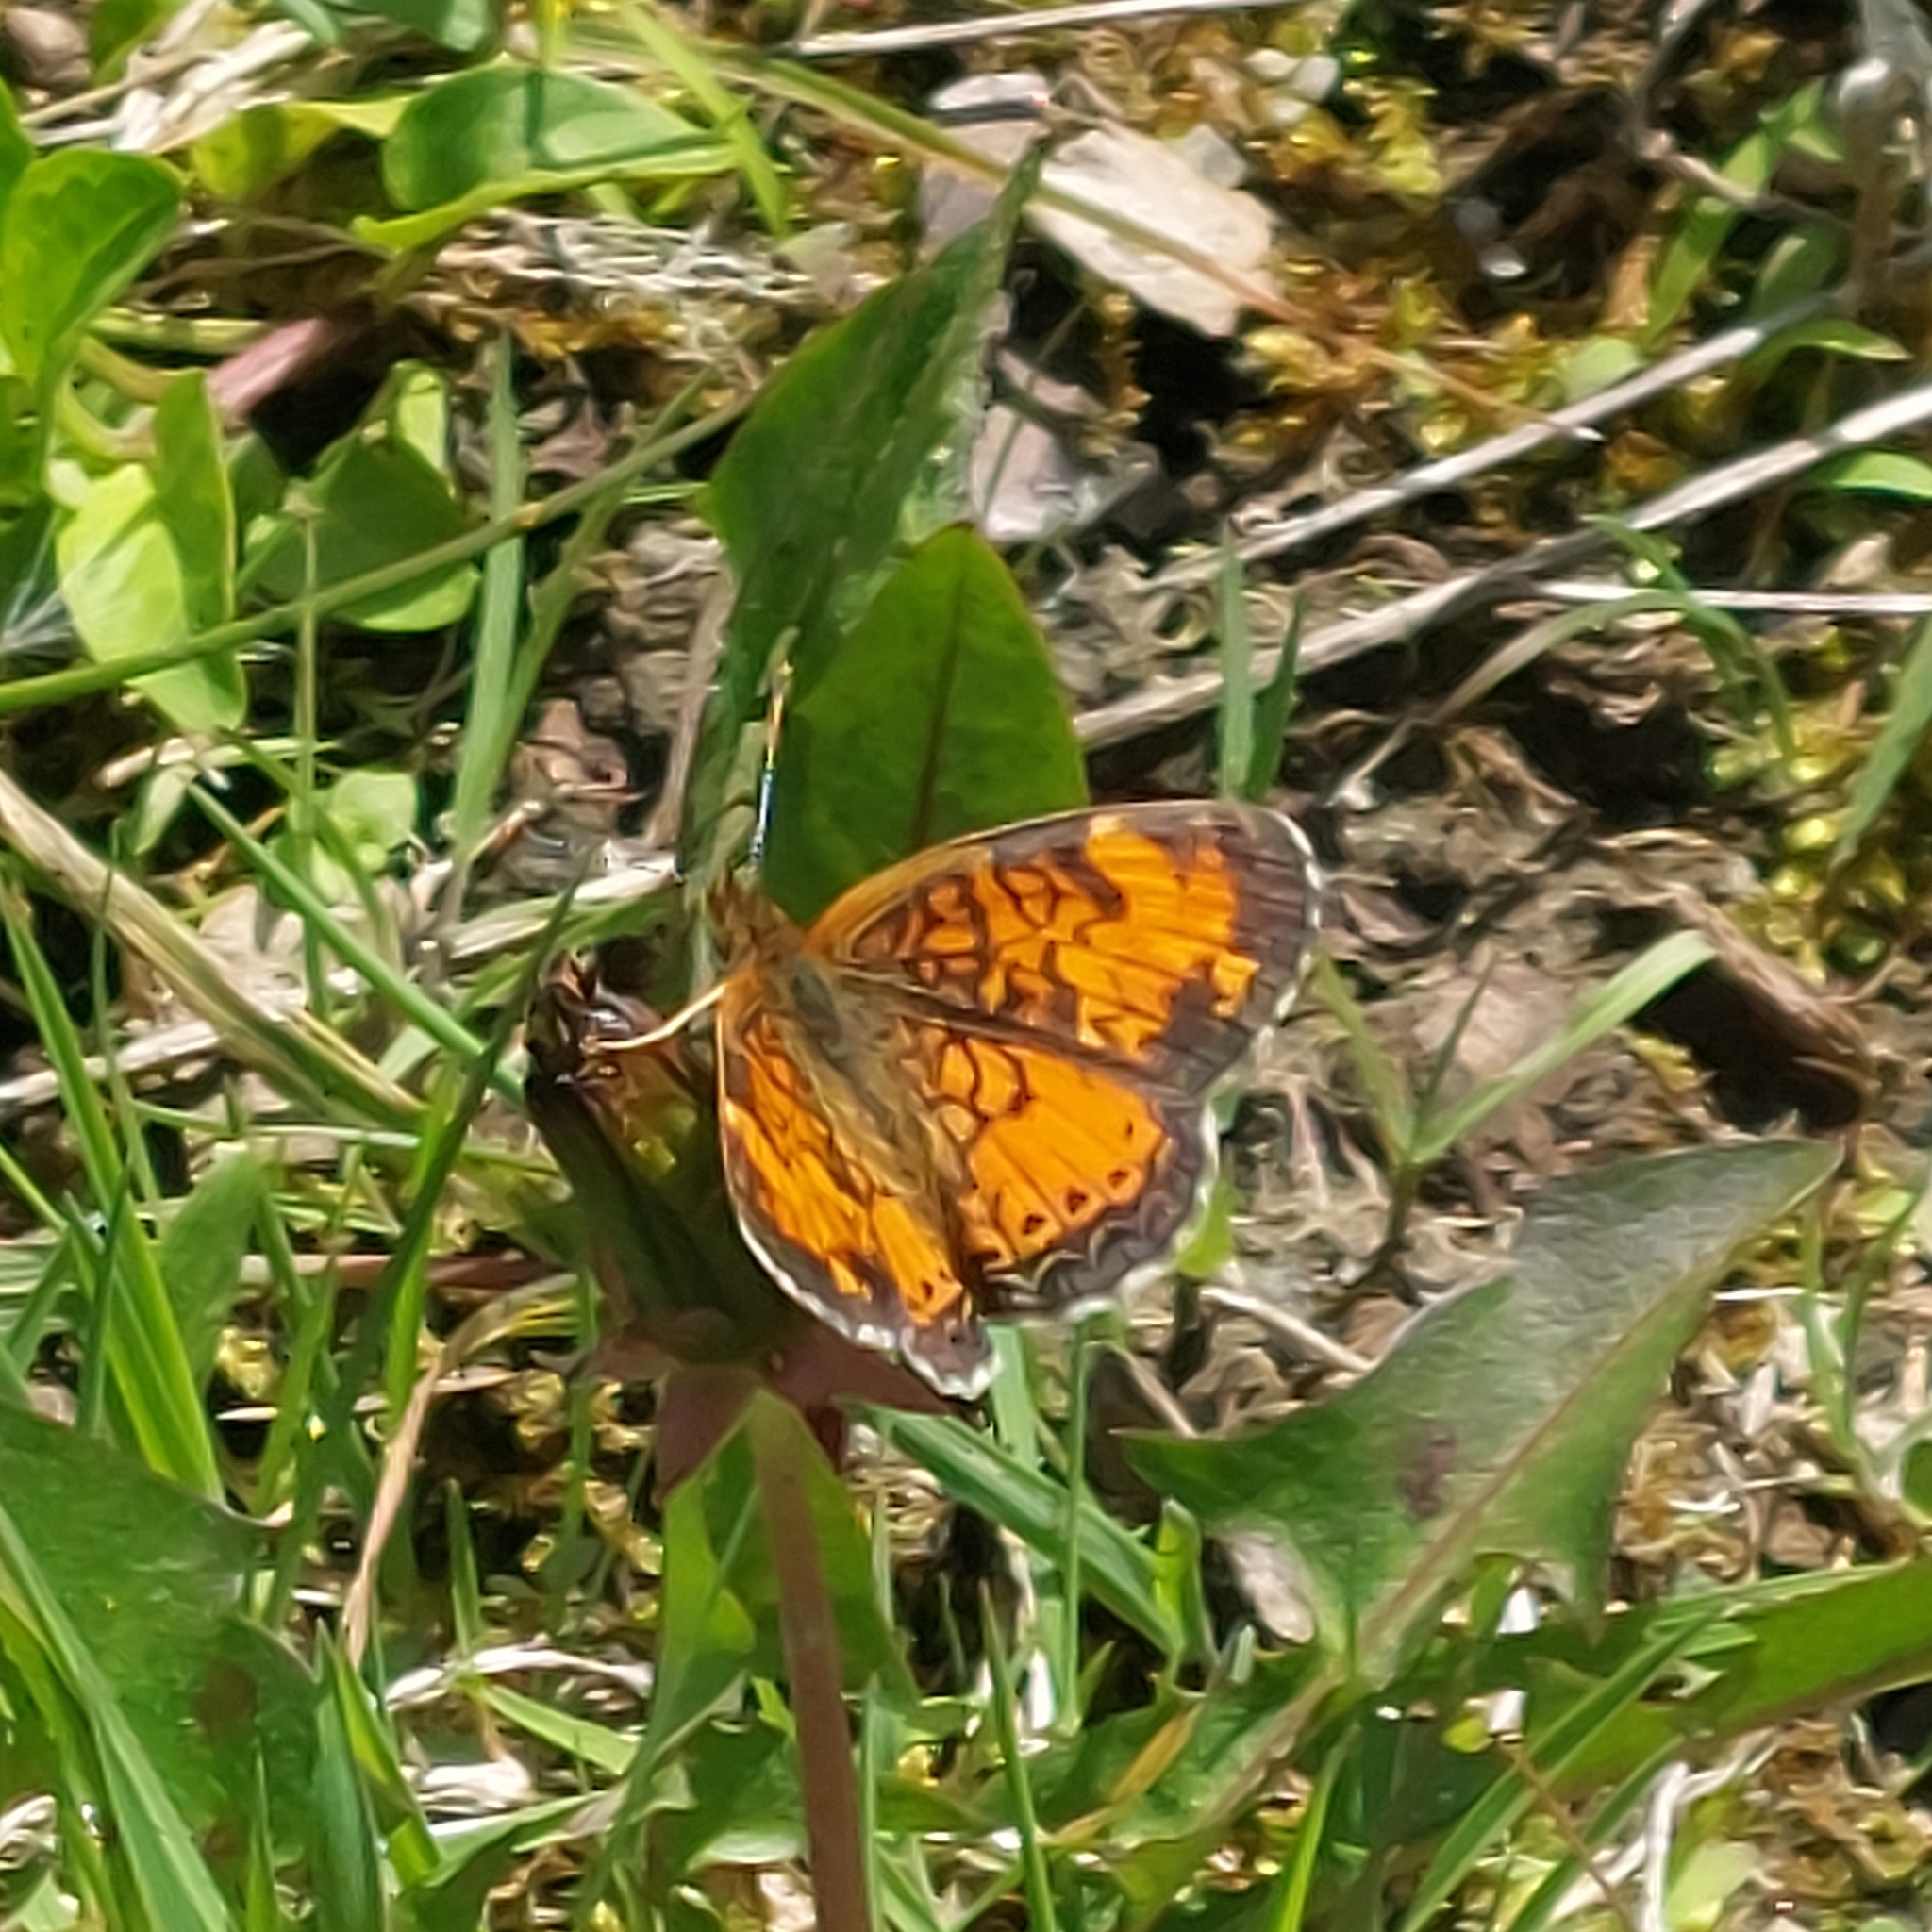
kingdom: Animalia
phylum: Arthropoda
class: Insecta
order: Lepidoptera
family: Nymphalidae
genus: Phyciodes
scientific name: Phyciodes tharos
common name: Pearl crescent
